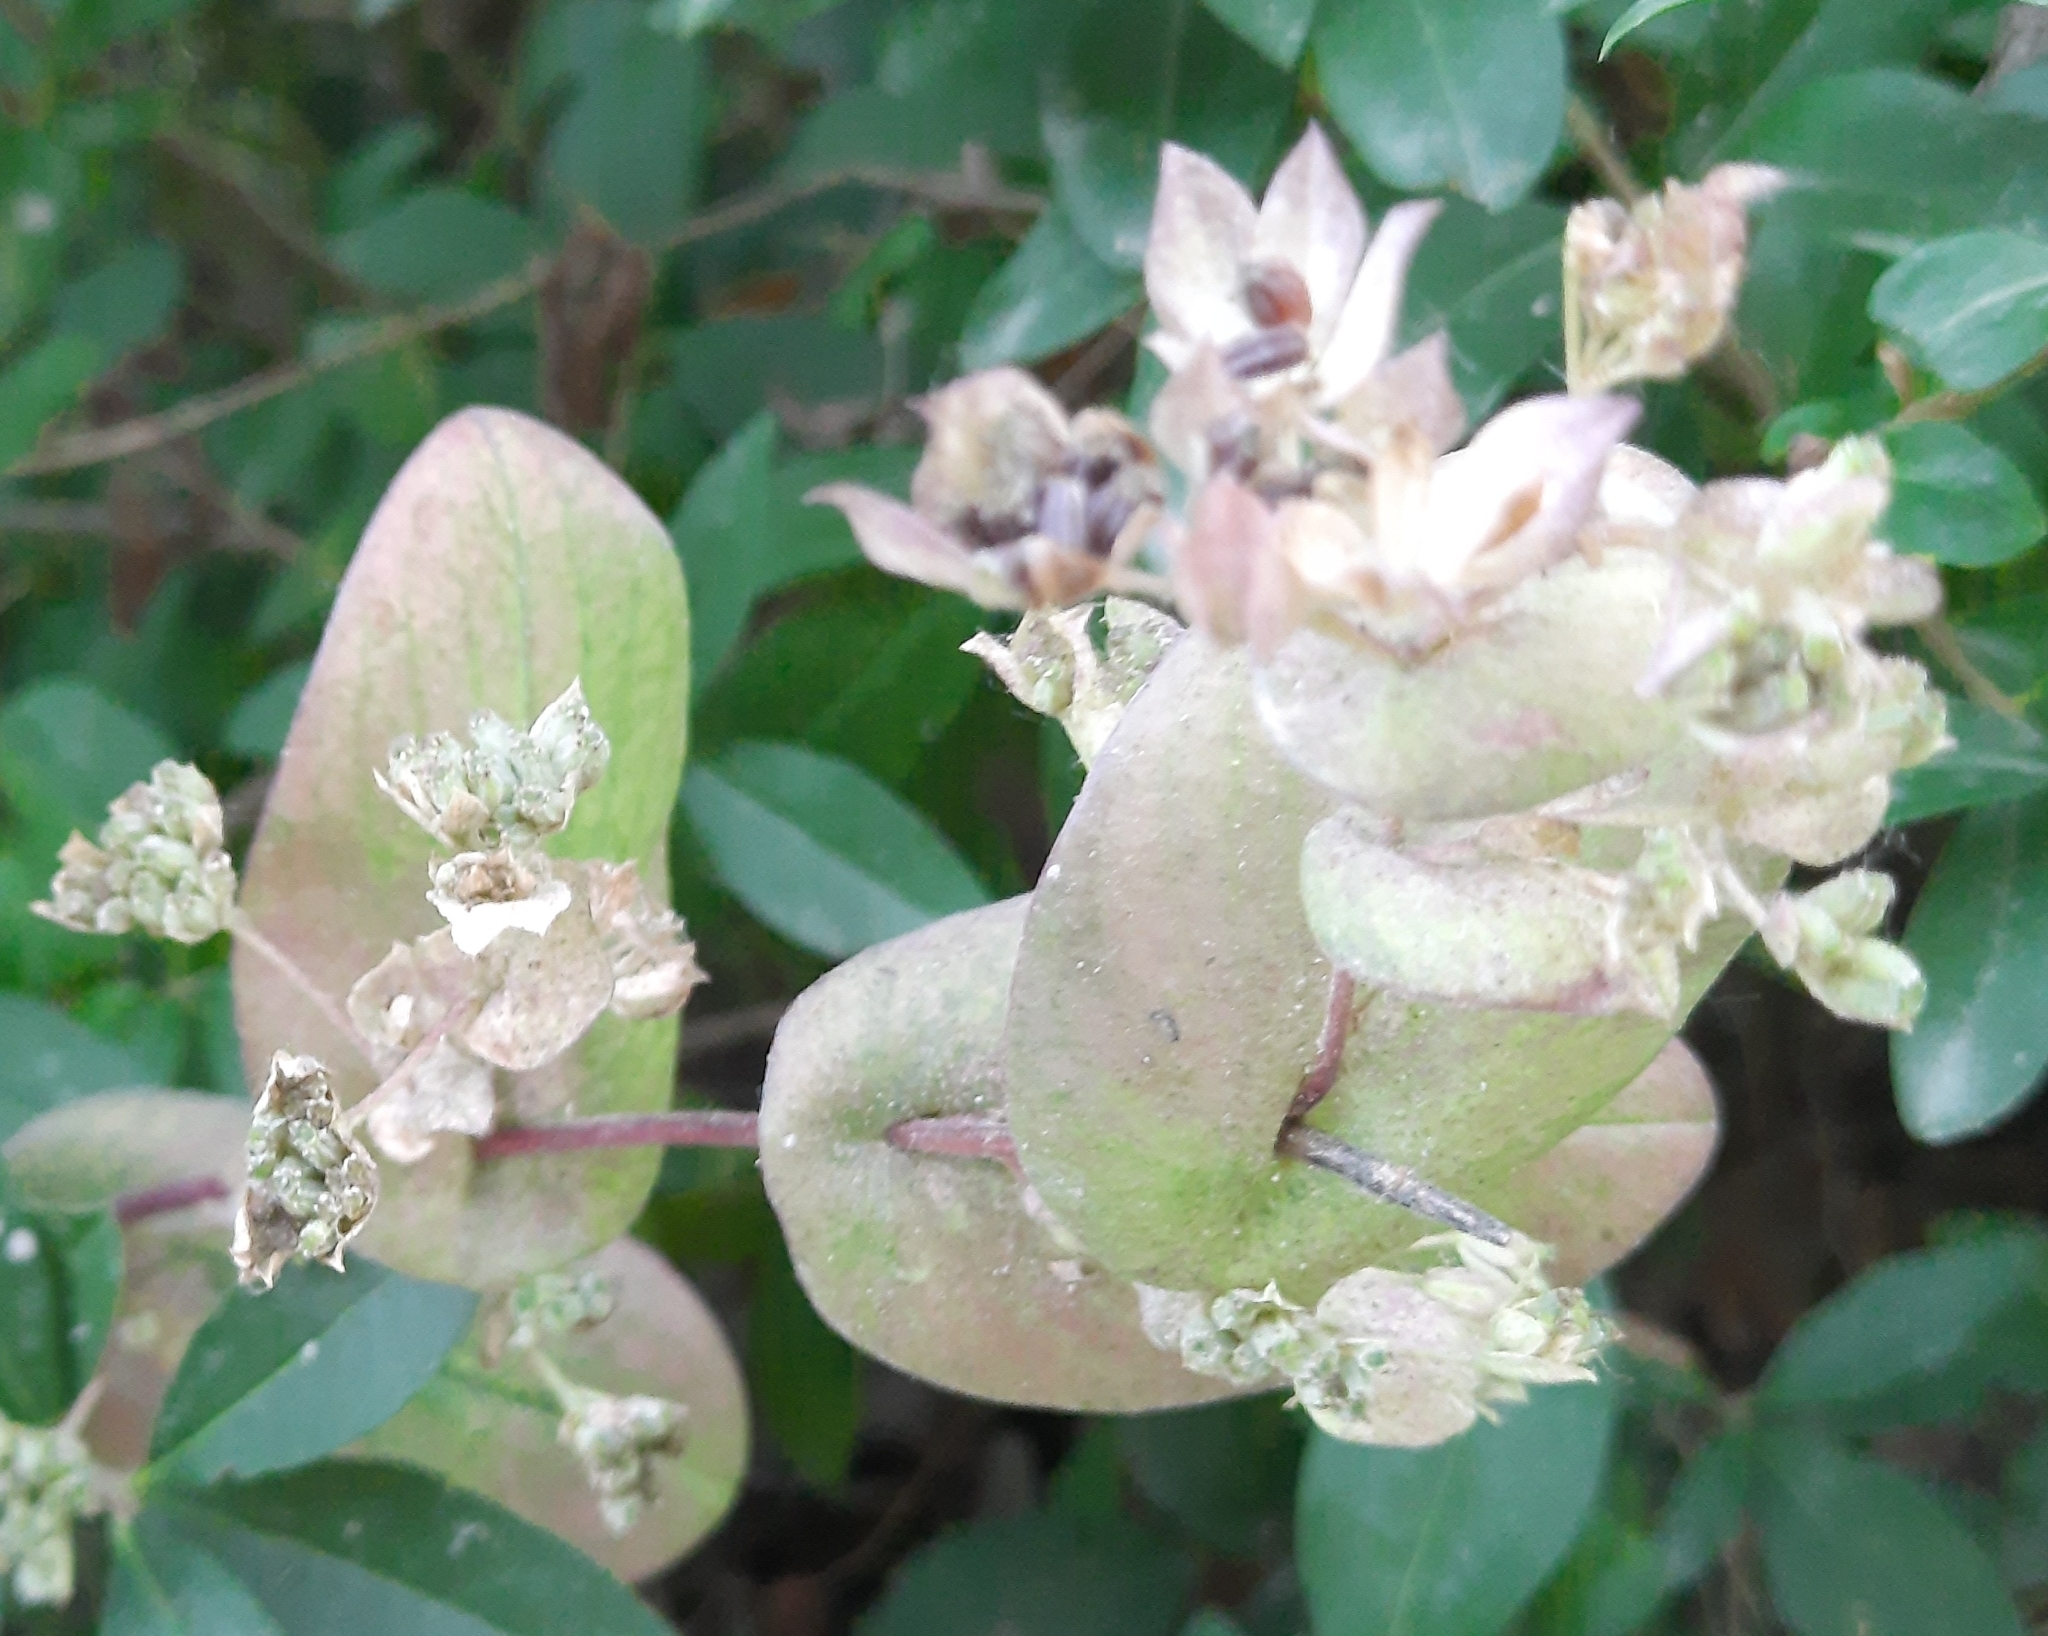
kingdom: Plantae
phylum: Tracheophyta
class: Magnoliopsida
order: Apiales
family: Apiaceae
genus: Bupleurum
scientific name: Bupleurum rotundifolium
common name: Thorow-wax
